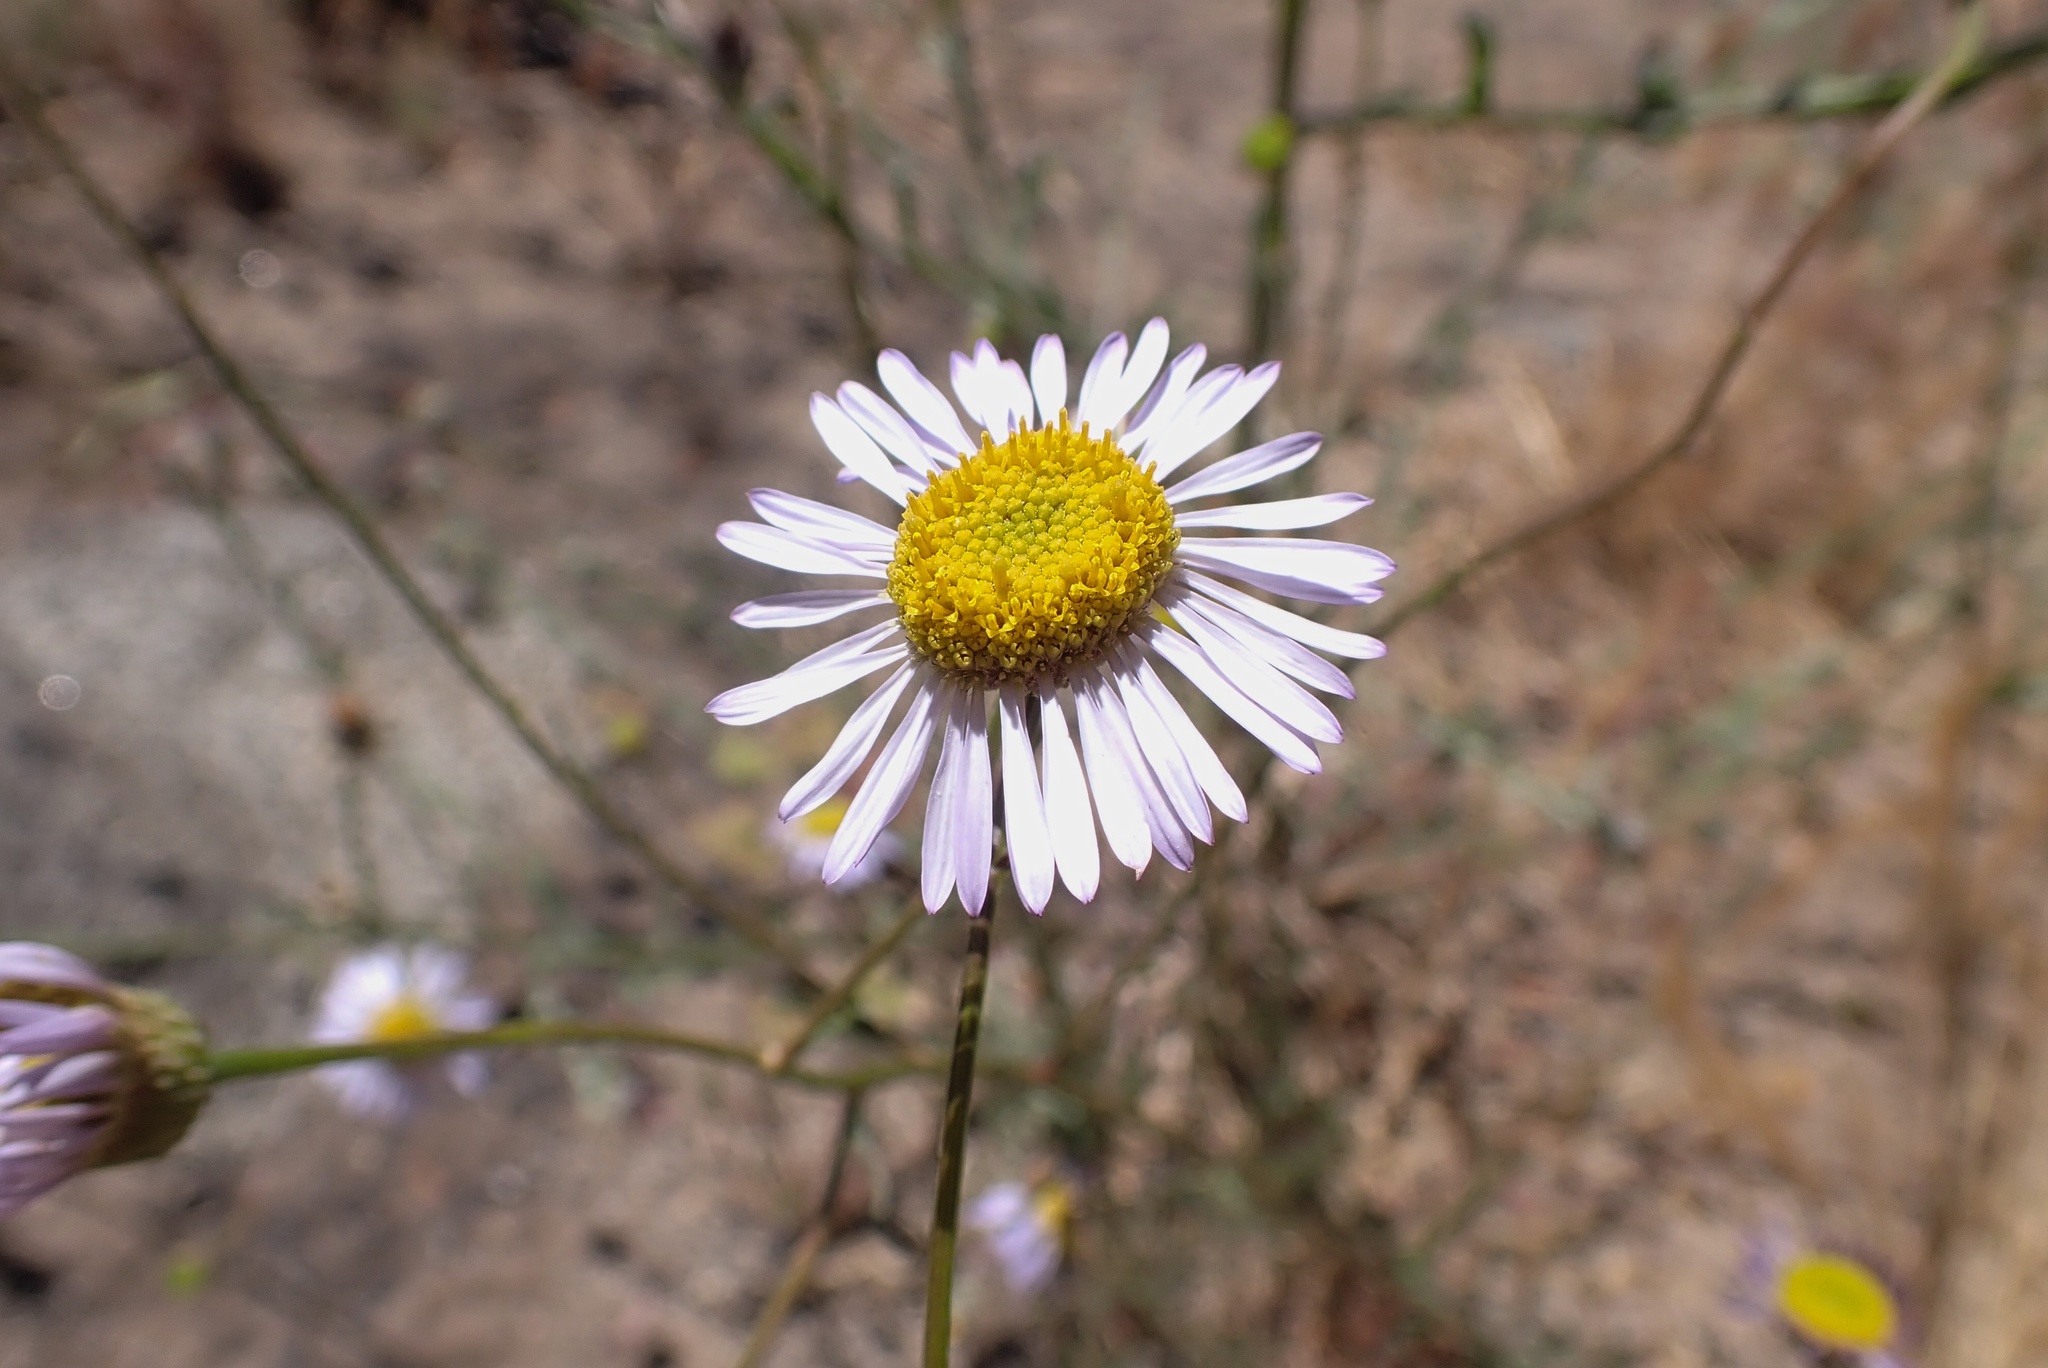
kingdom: Plantae
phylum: Tracheophyta
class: Magnoliopsida
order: Asterales
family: Asteraceae
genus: Erigeron
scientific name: Erigeron foliosus
